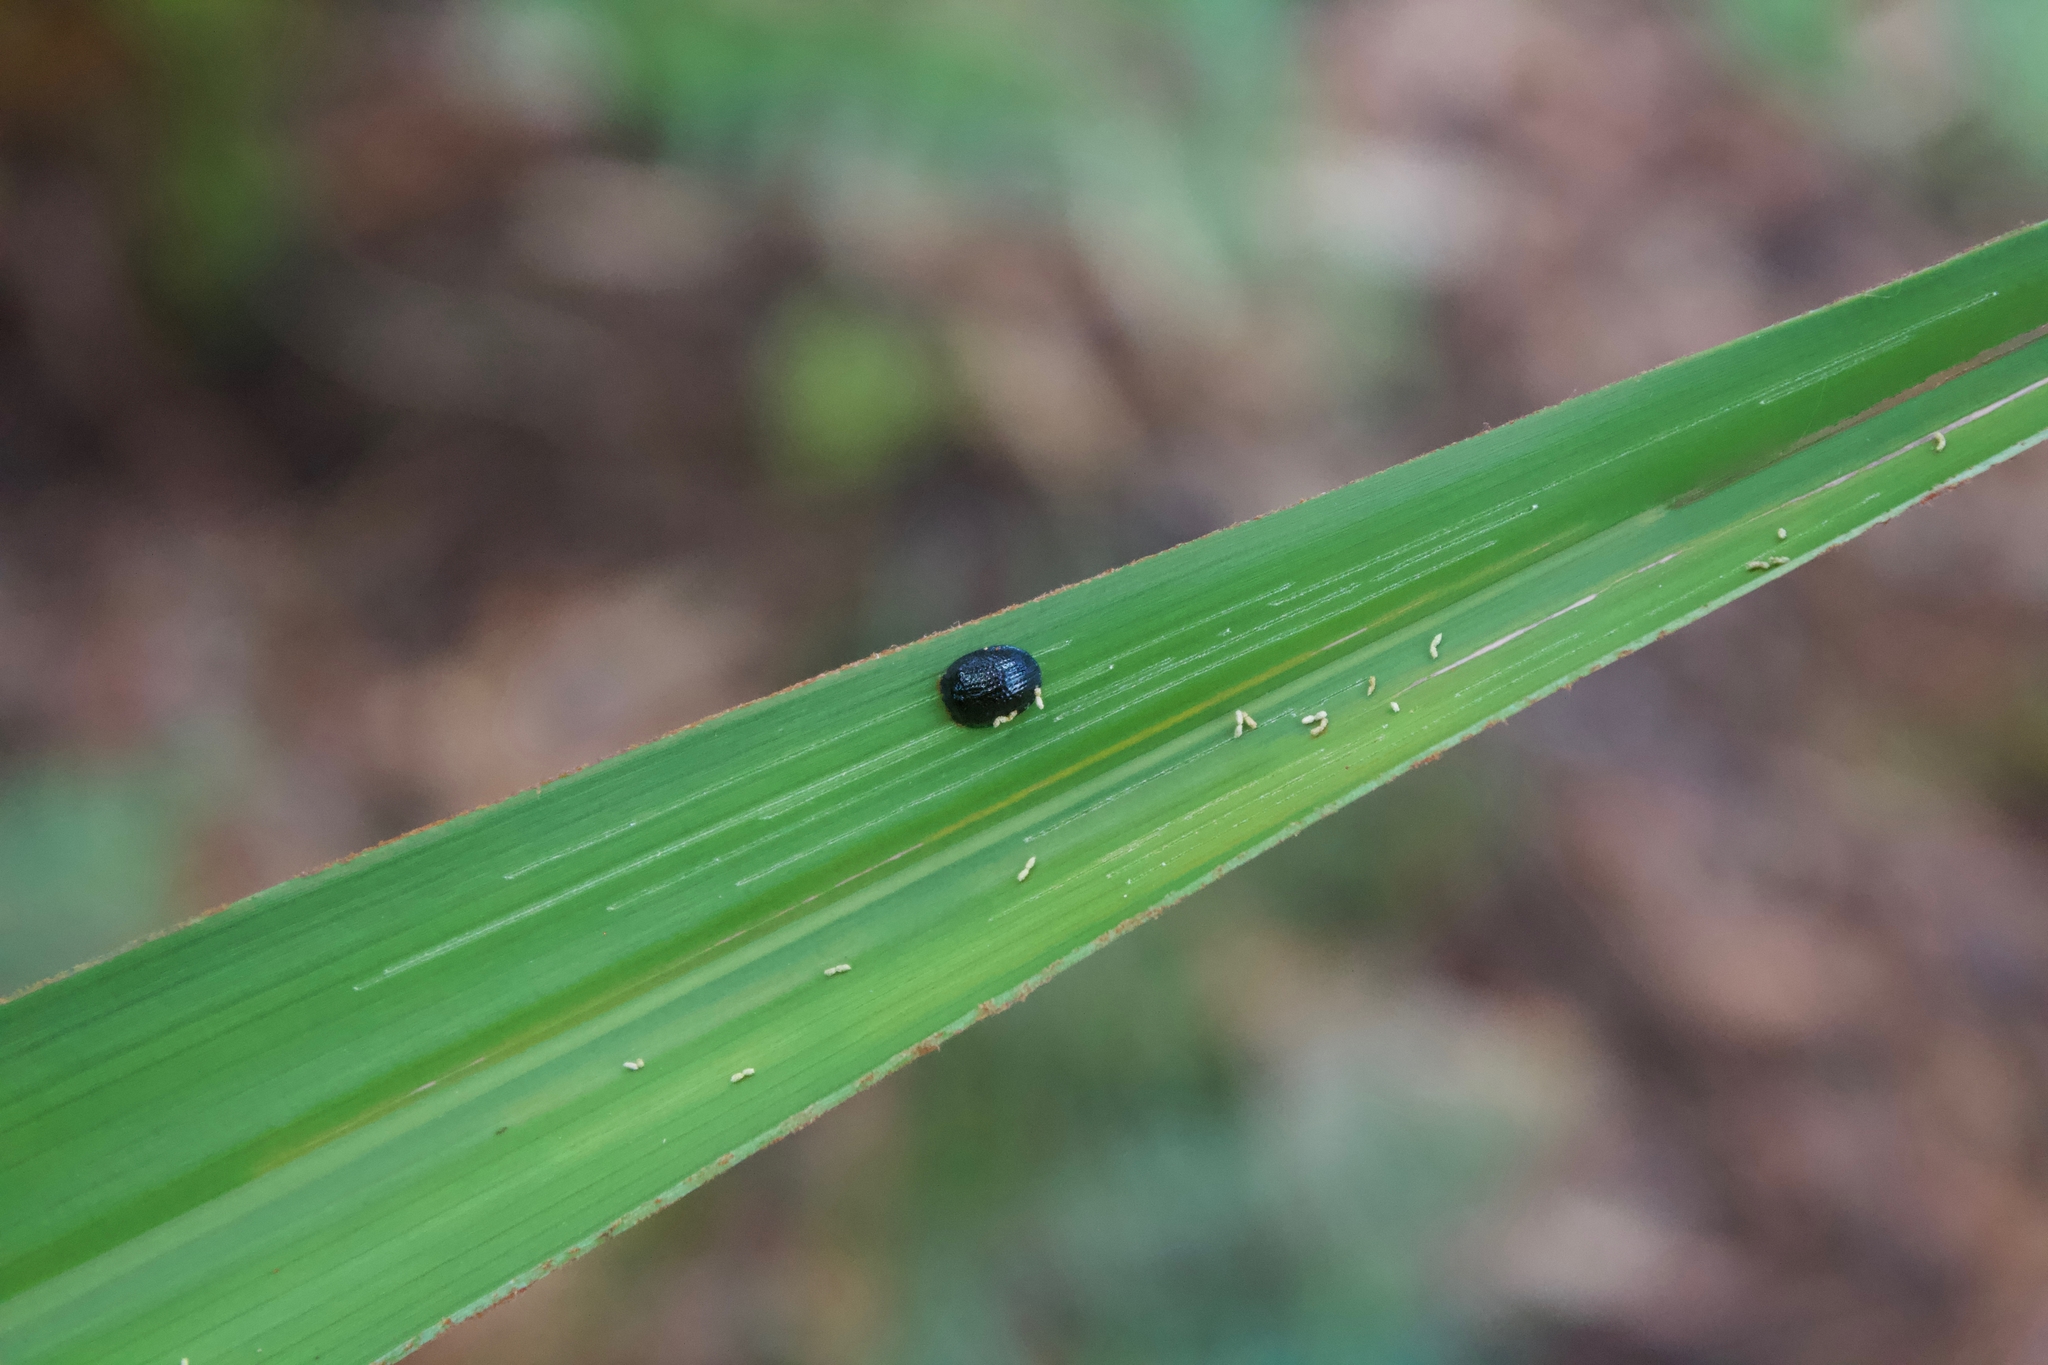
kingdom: Animalia
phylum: Arthropoda
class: Insecta
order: Coleoptera
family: Chrysomelidae
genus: Hemisphaerota
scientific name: Hemisphaerota cyanea
